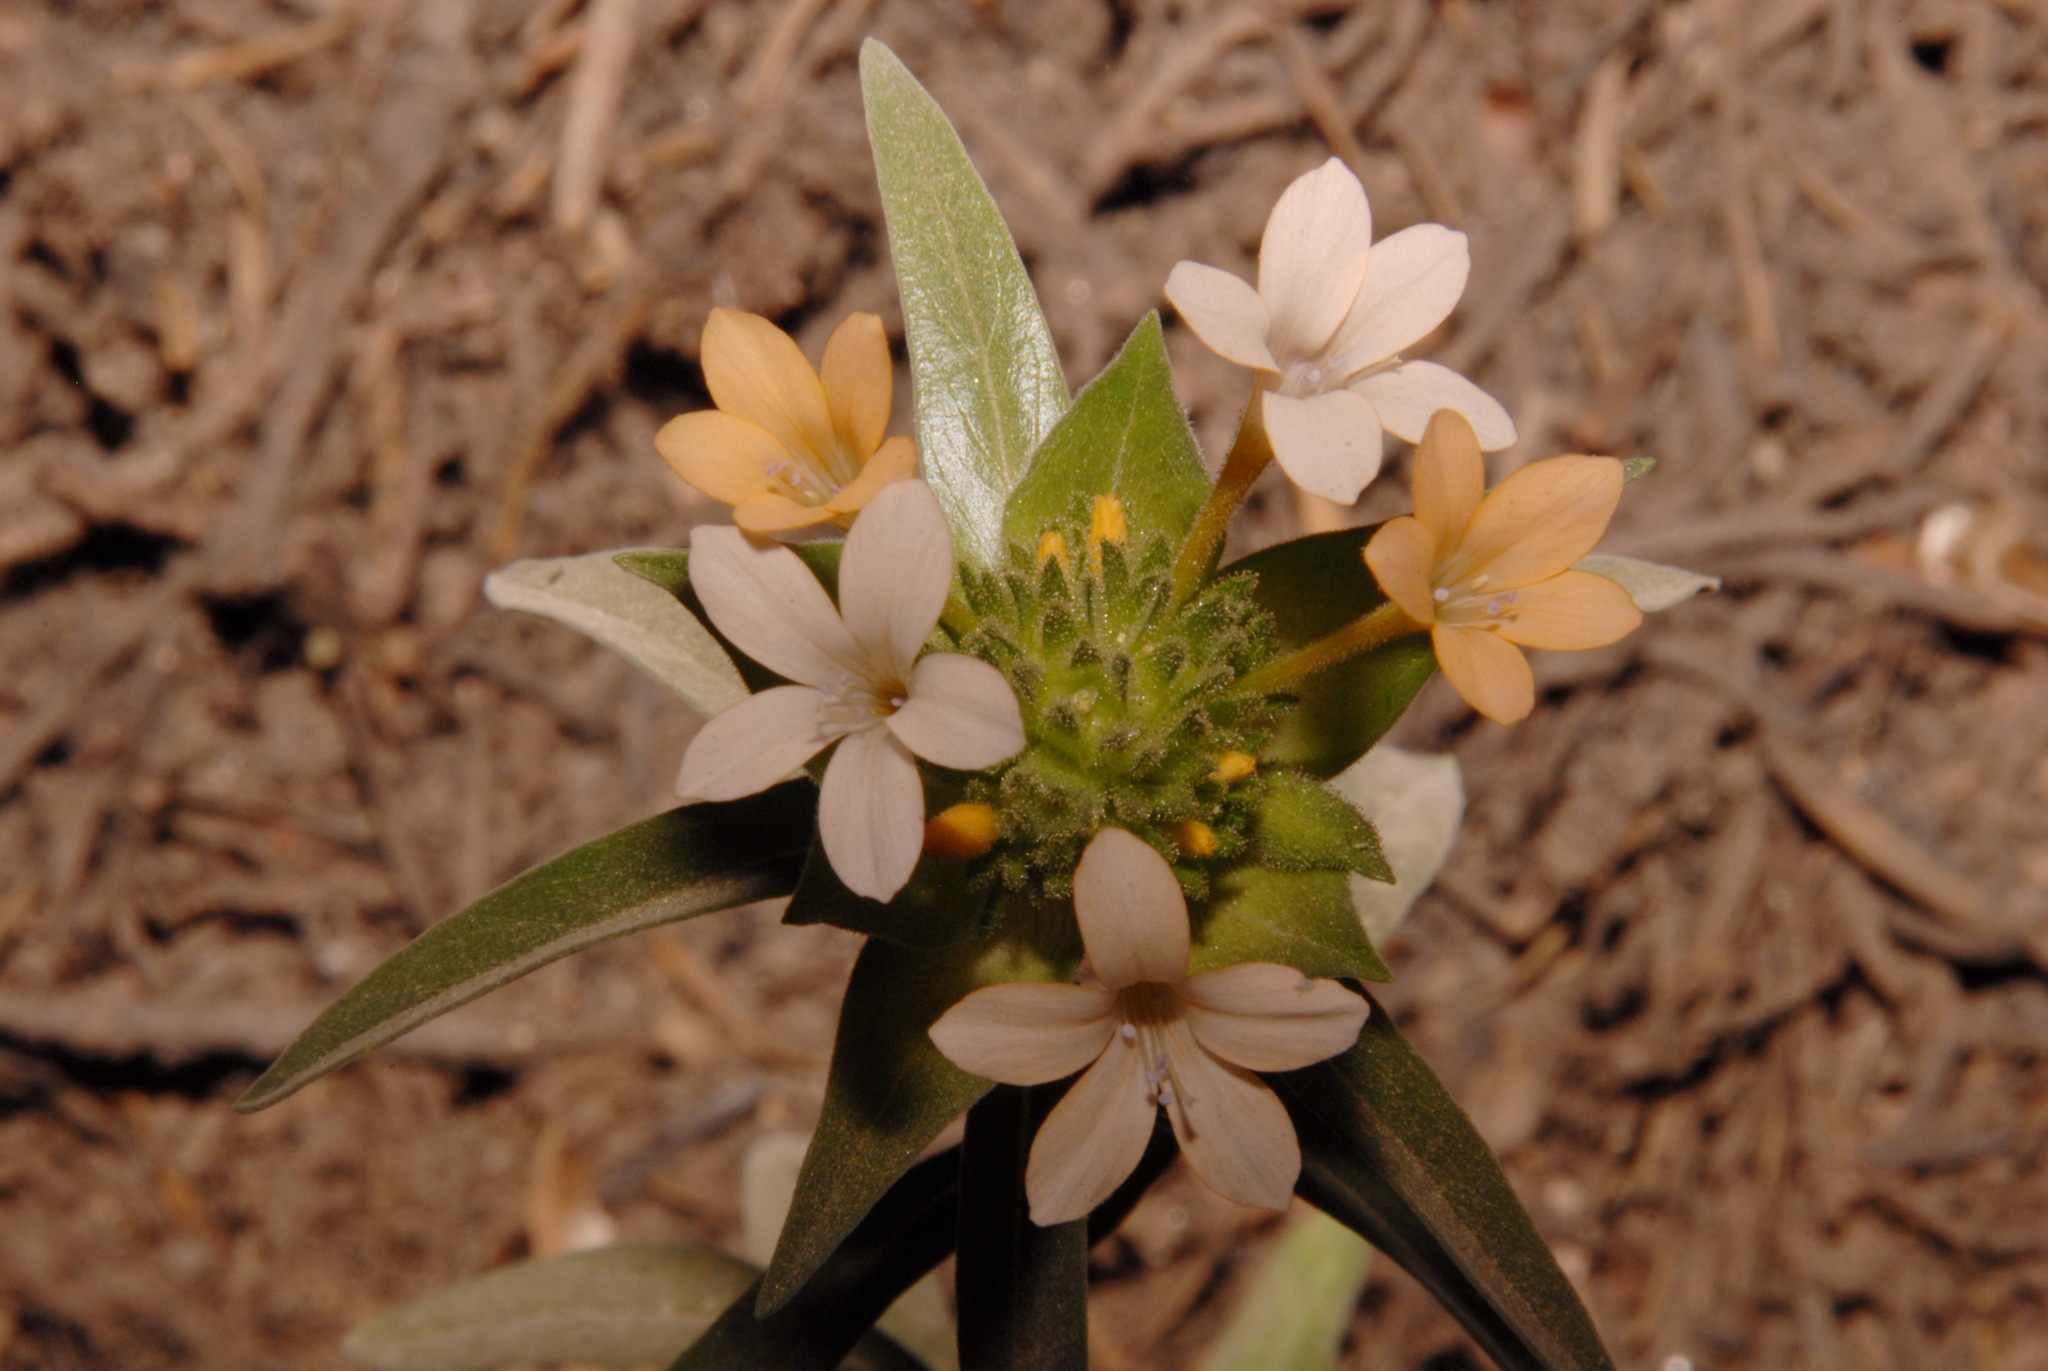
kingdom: Plantae
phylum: Tracheophyta
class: Magnoliopsida
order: Ericales
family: Polemoniaceae
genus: Collomia
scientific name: Collomia grandiflora
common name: California strawflower
